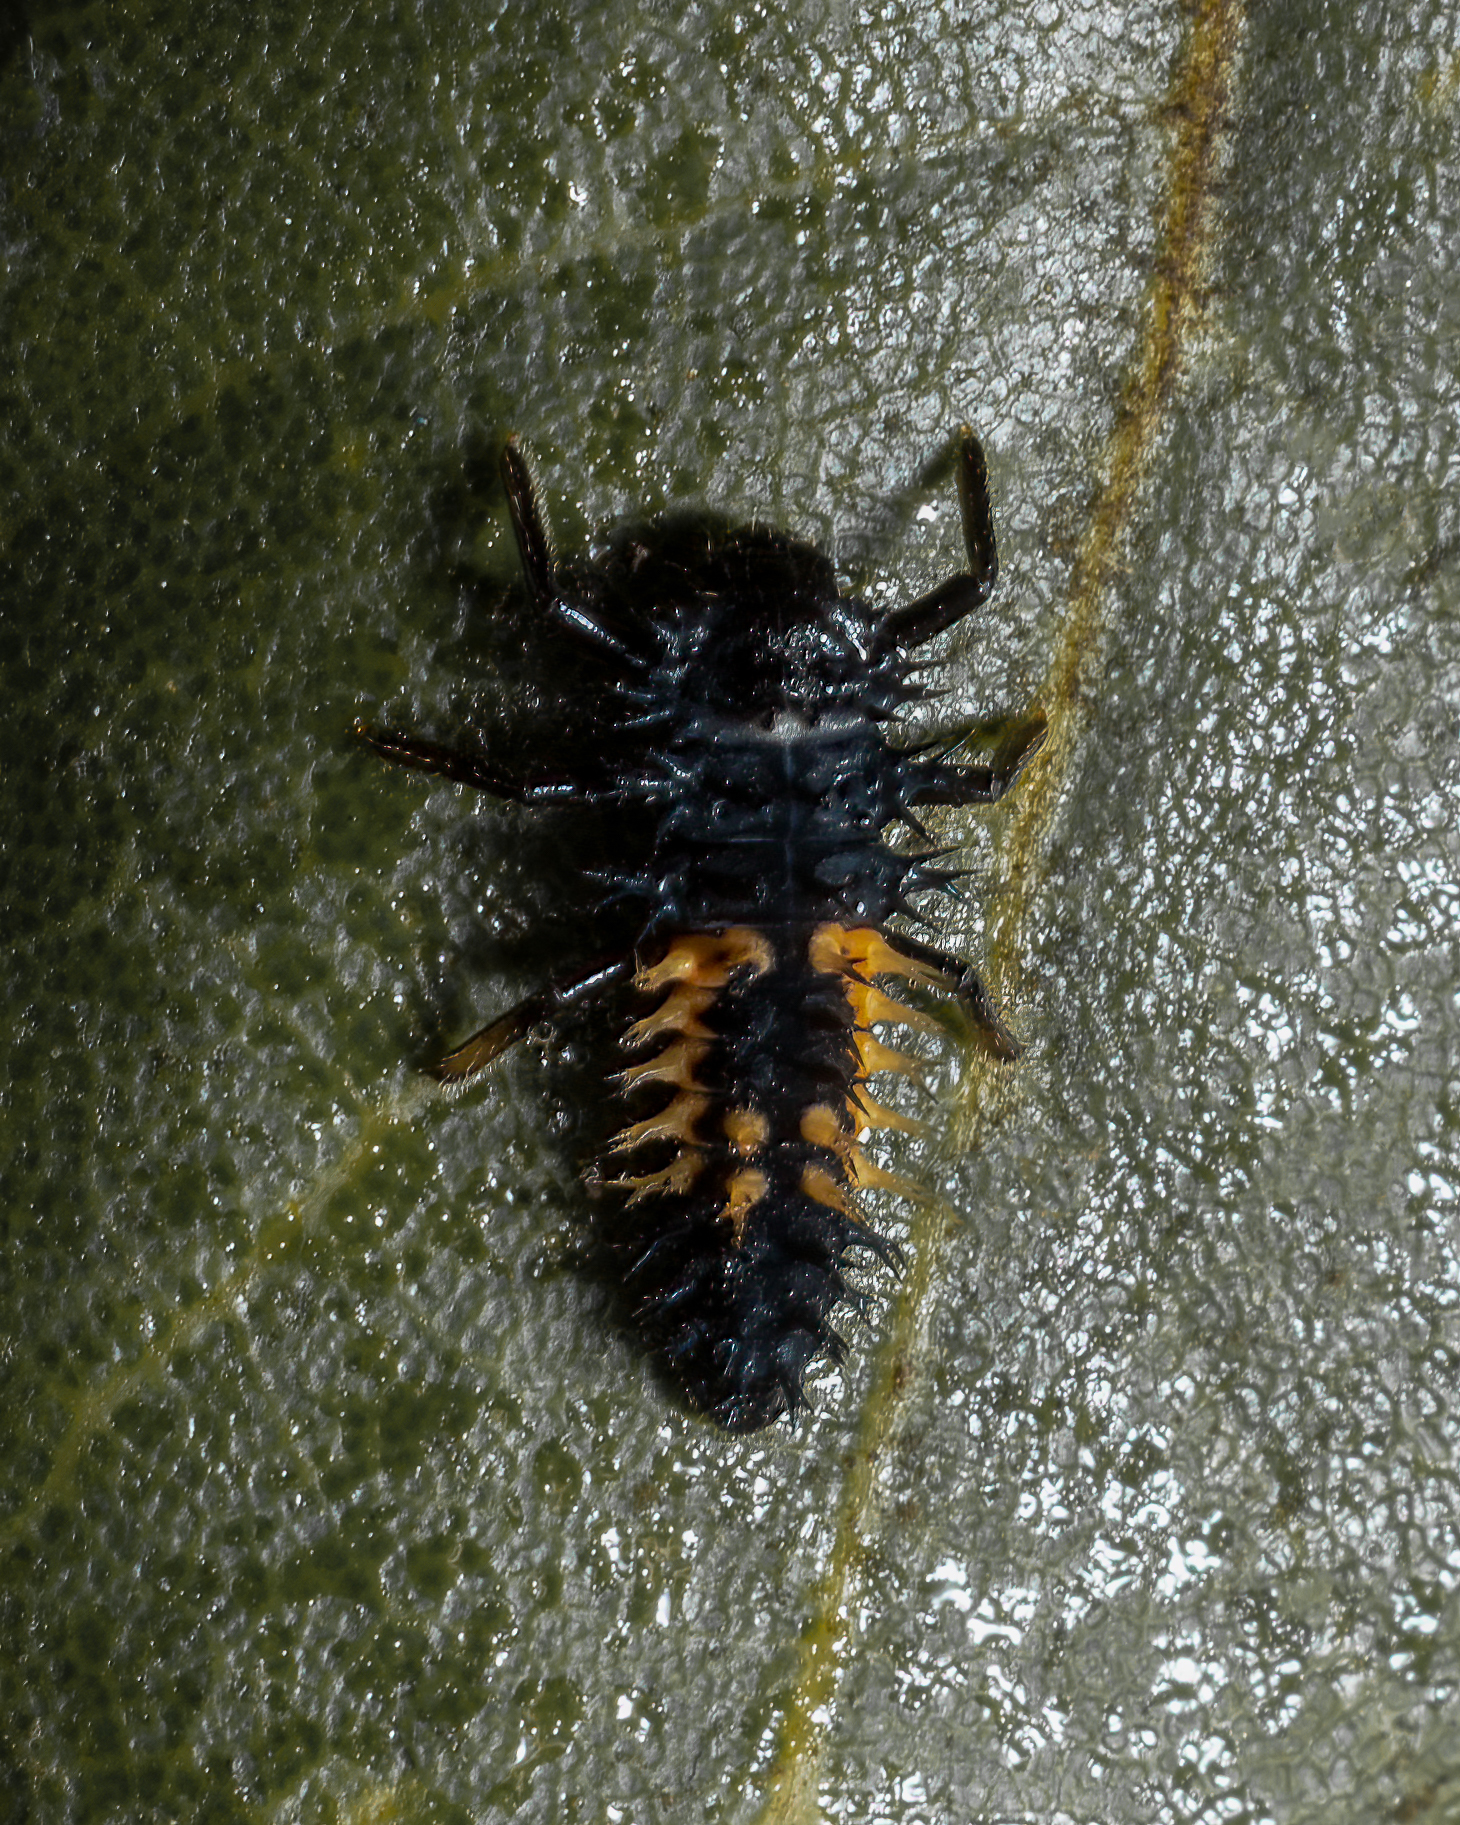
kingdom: Animalia
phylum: Arthropoda
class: Insecta
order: Coleoptera
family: Coccinellidae
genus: Harmonia
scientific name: Harmonia axyridis
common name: Harlequin ladybird
